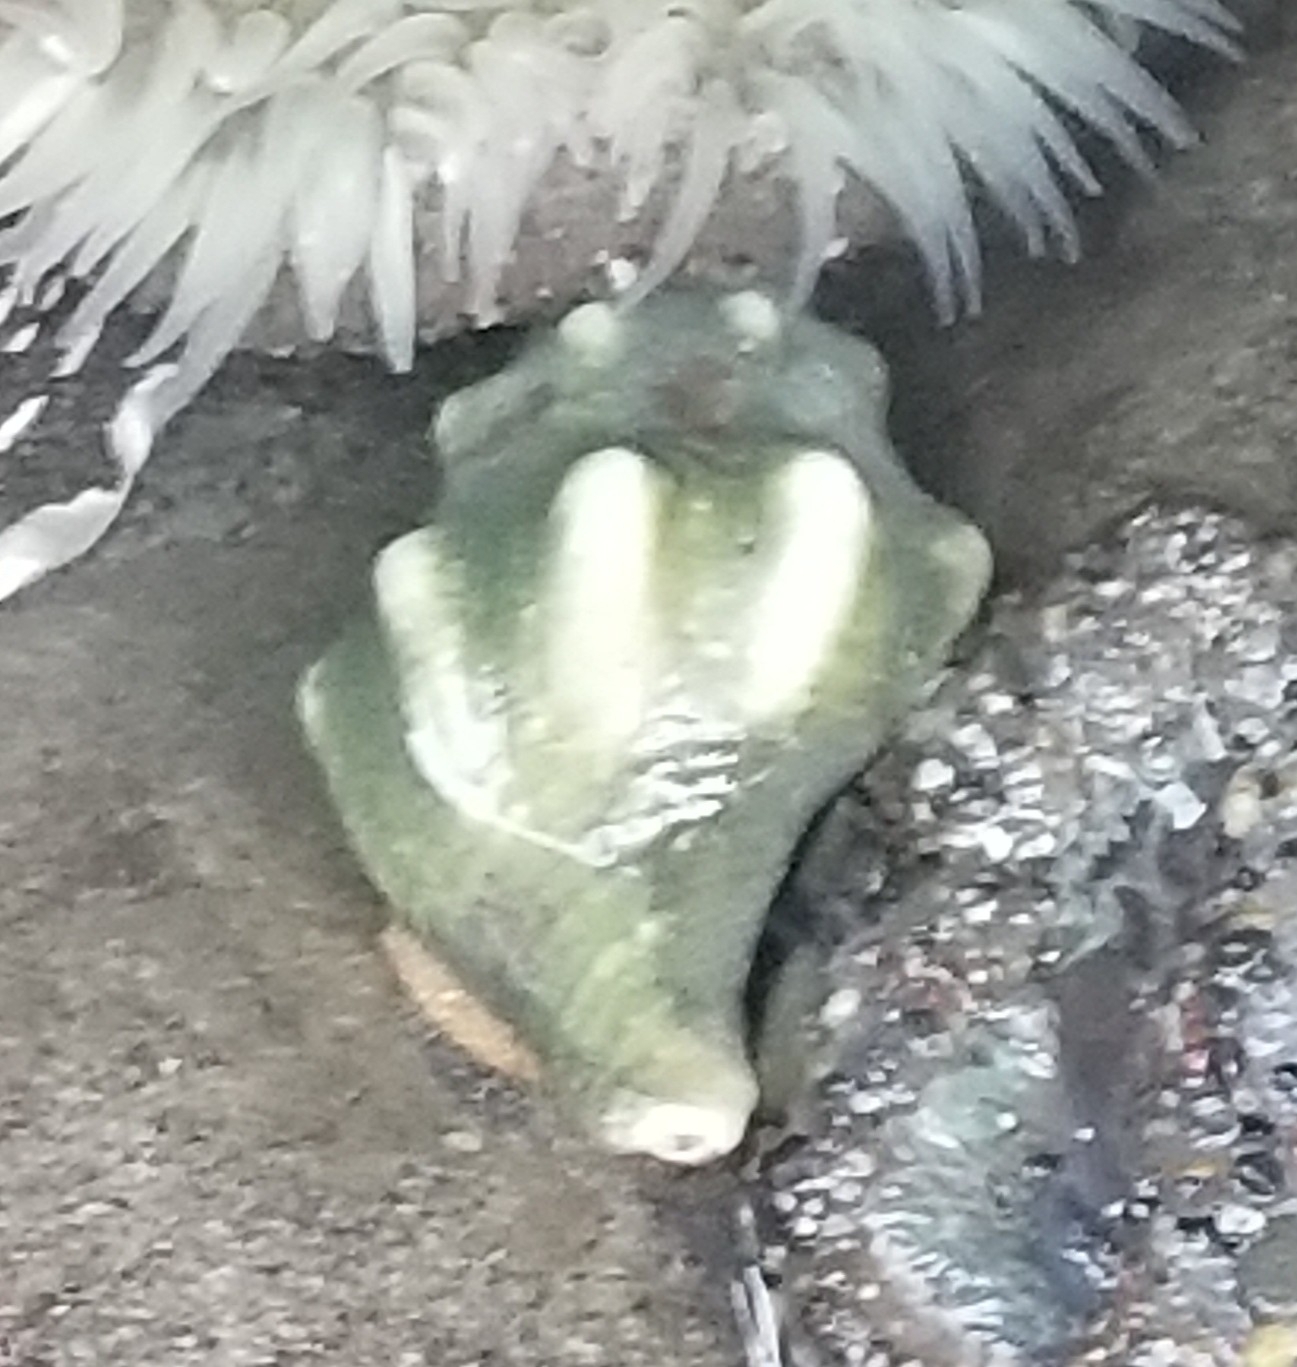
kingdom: Animalia
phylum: Mollusca
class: Gastropoda
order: Neogastropoda
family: Austrosiphonidae
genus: Kelletia
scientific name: Kelletia kelletii
